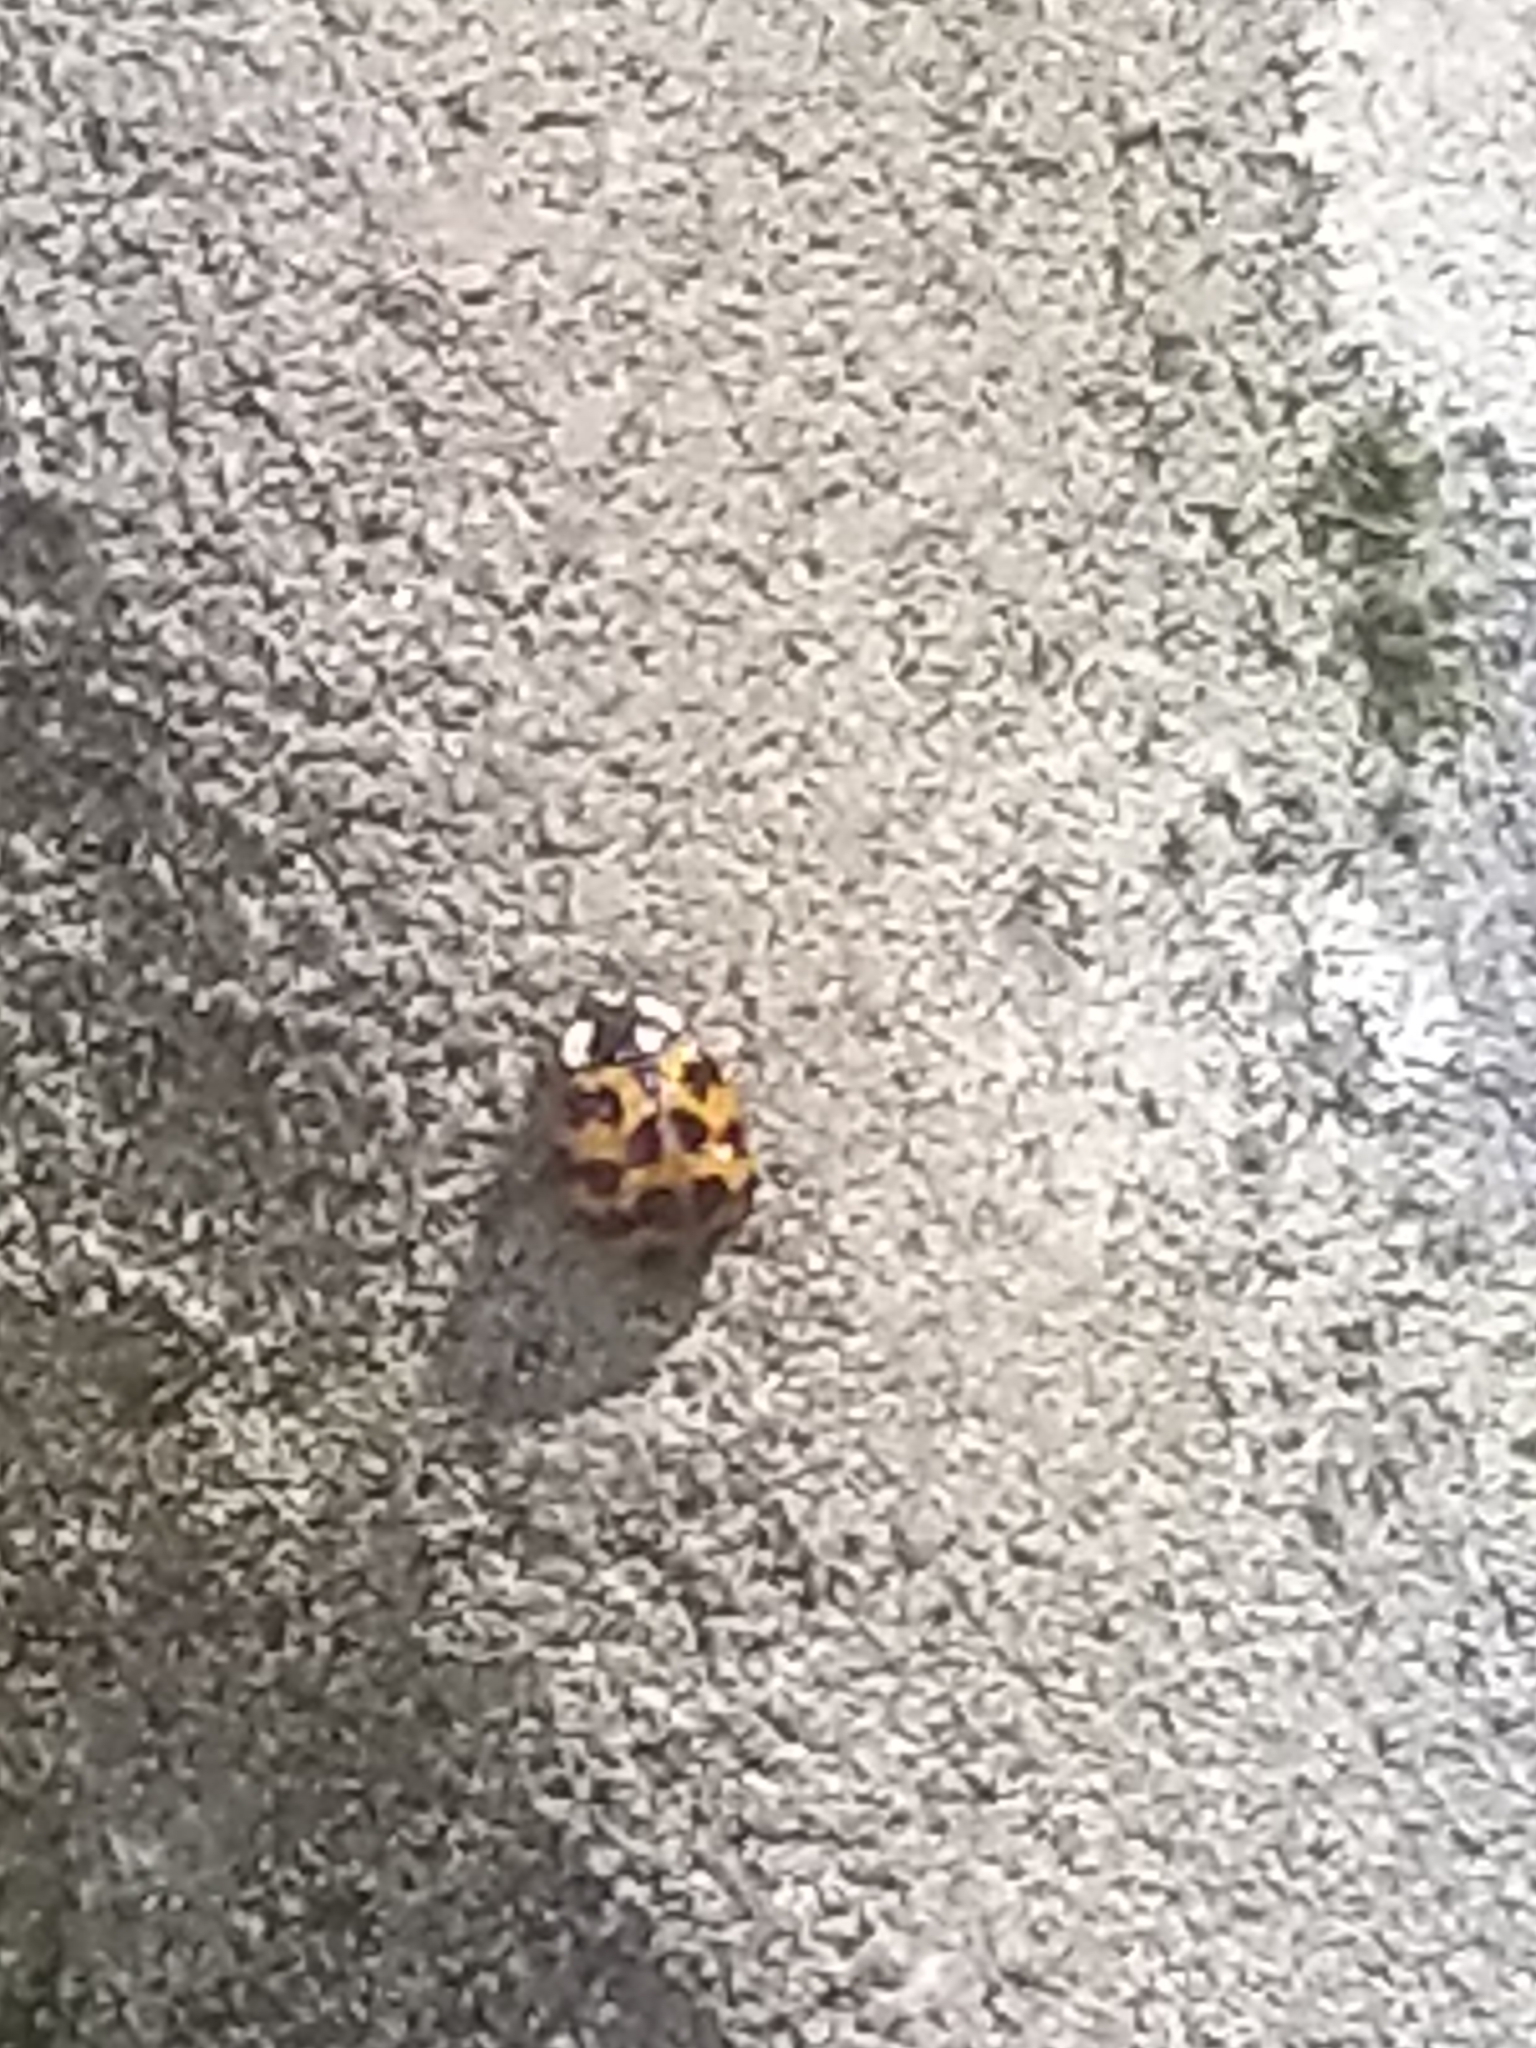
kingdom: Animalia
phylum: Arthropoda
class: Insecta
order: Coleoptera
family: Coccinellidae
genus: Harmonia
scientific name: Harmonia axyridis
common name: Harlequin ladybird
